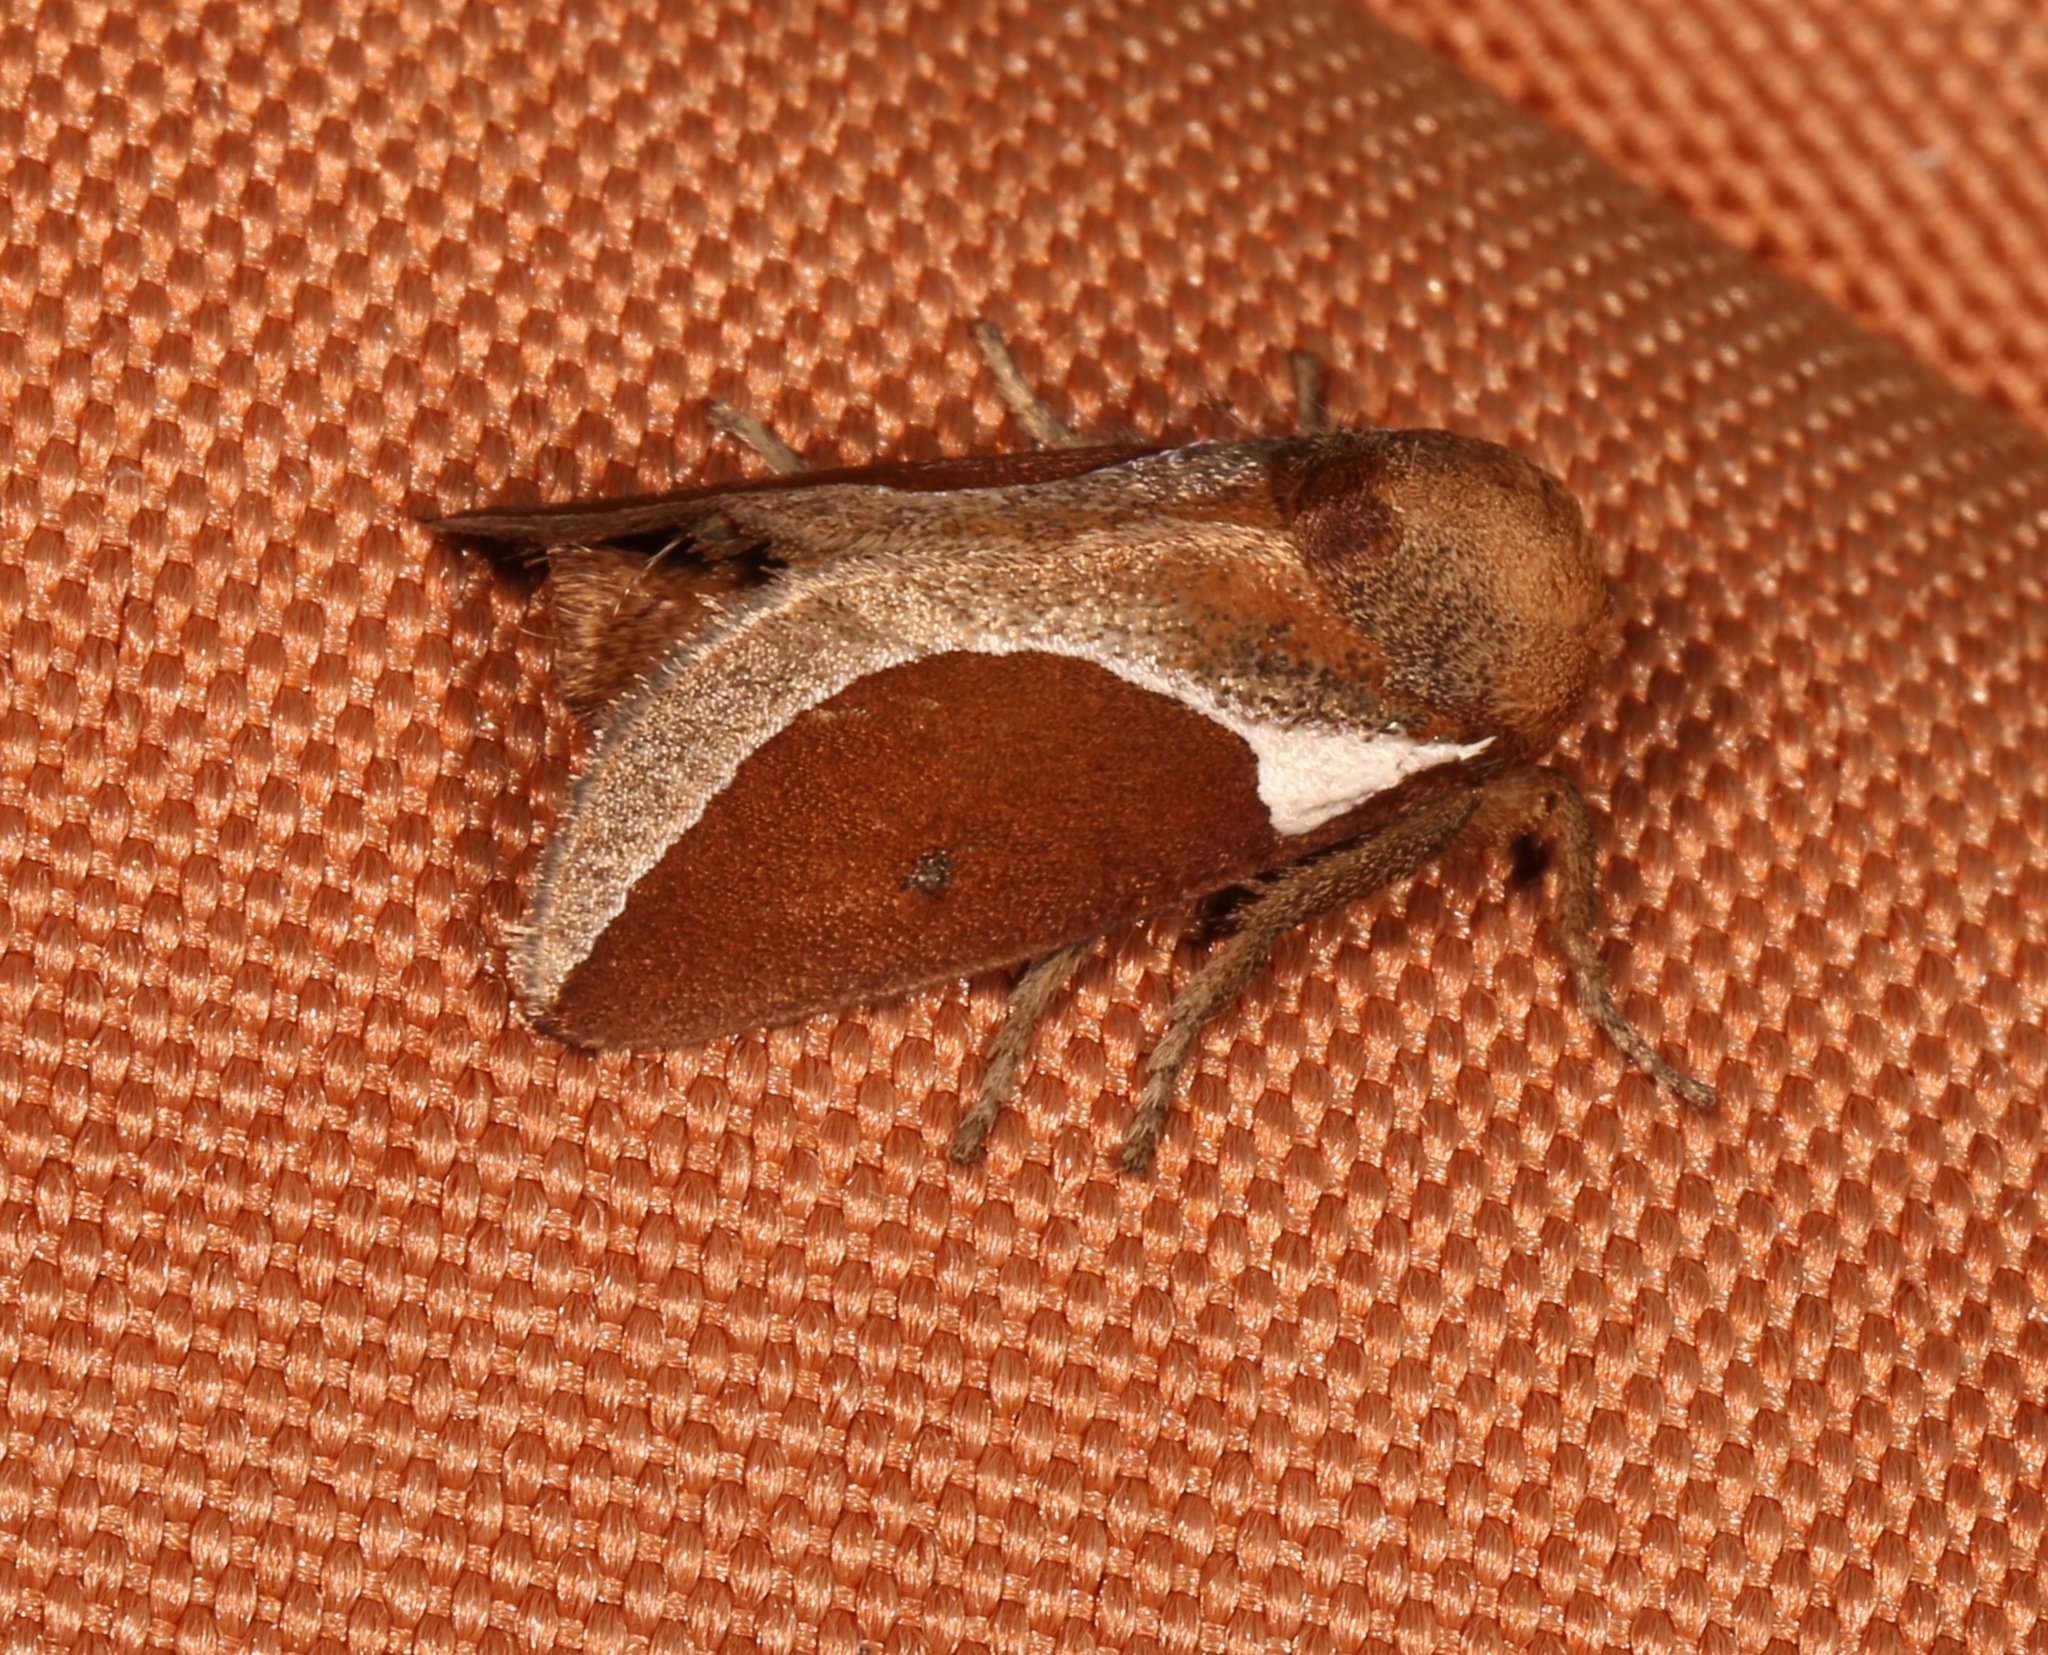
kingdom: Animalia
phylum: Arthropoda
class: Insecta
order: Lepidoptera
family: Limacodidae
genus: Prolimacodes
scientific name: Prolimacodes badia
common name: Skiff moth
